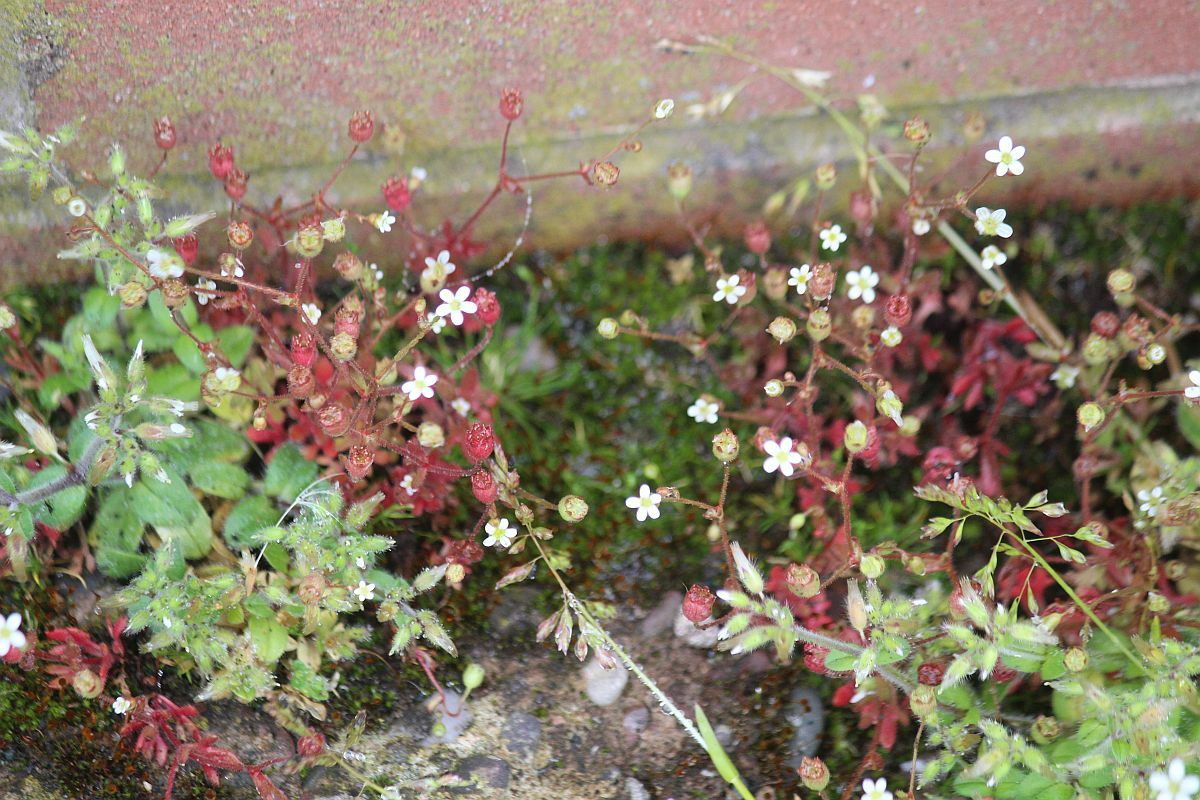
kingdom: Plantae
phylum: Tracheophyta
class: Magnoliopsida
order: Saxifragales
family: Saxifragaceae
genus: Saxifraga
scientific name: Saxifraga tridactylites
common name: Rue-leaved saxifrage
